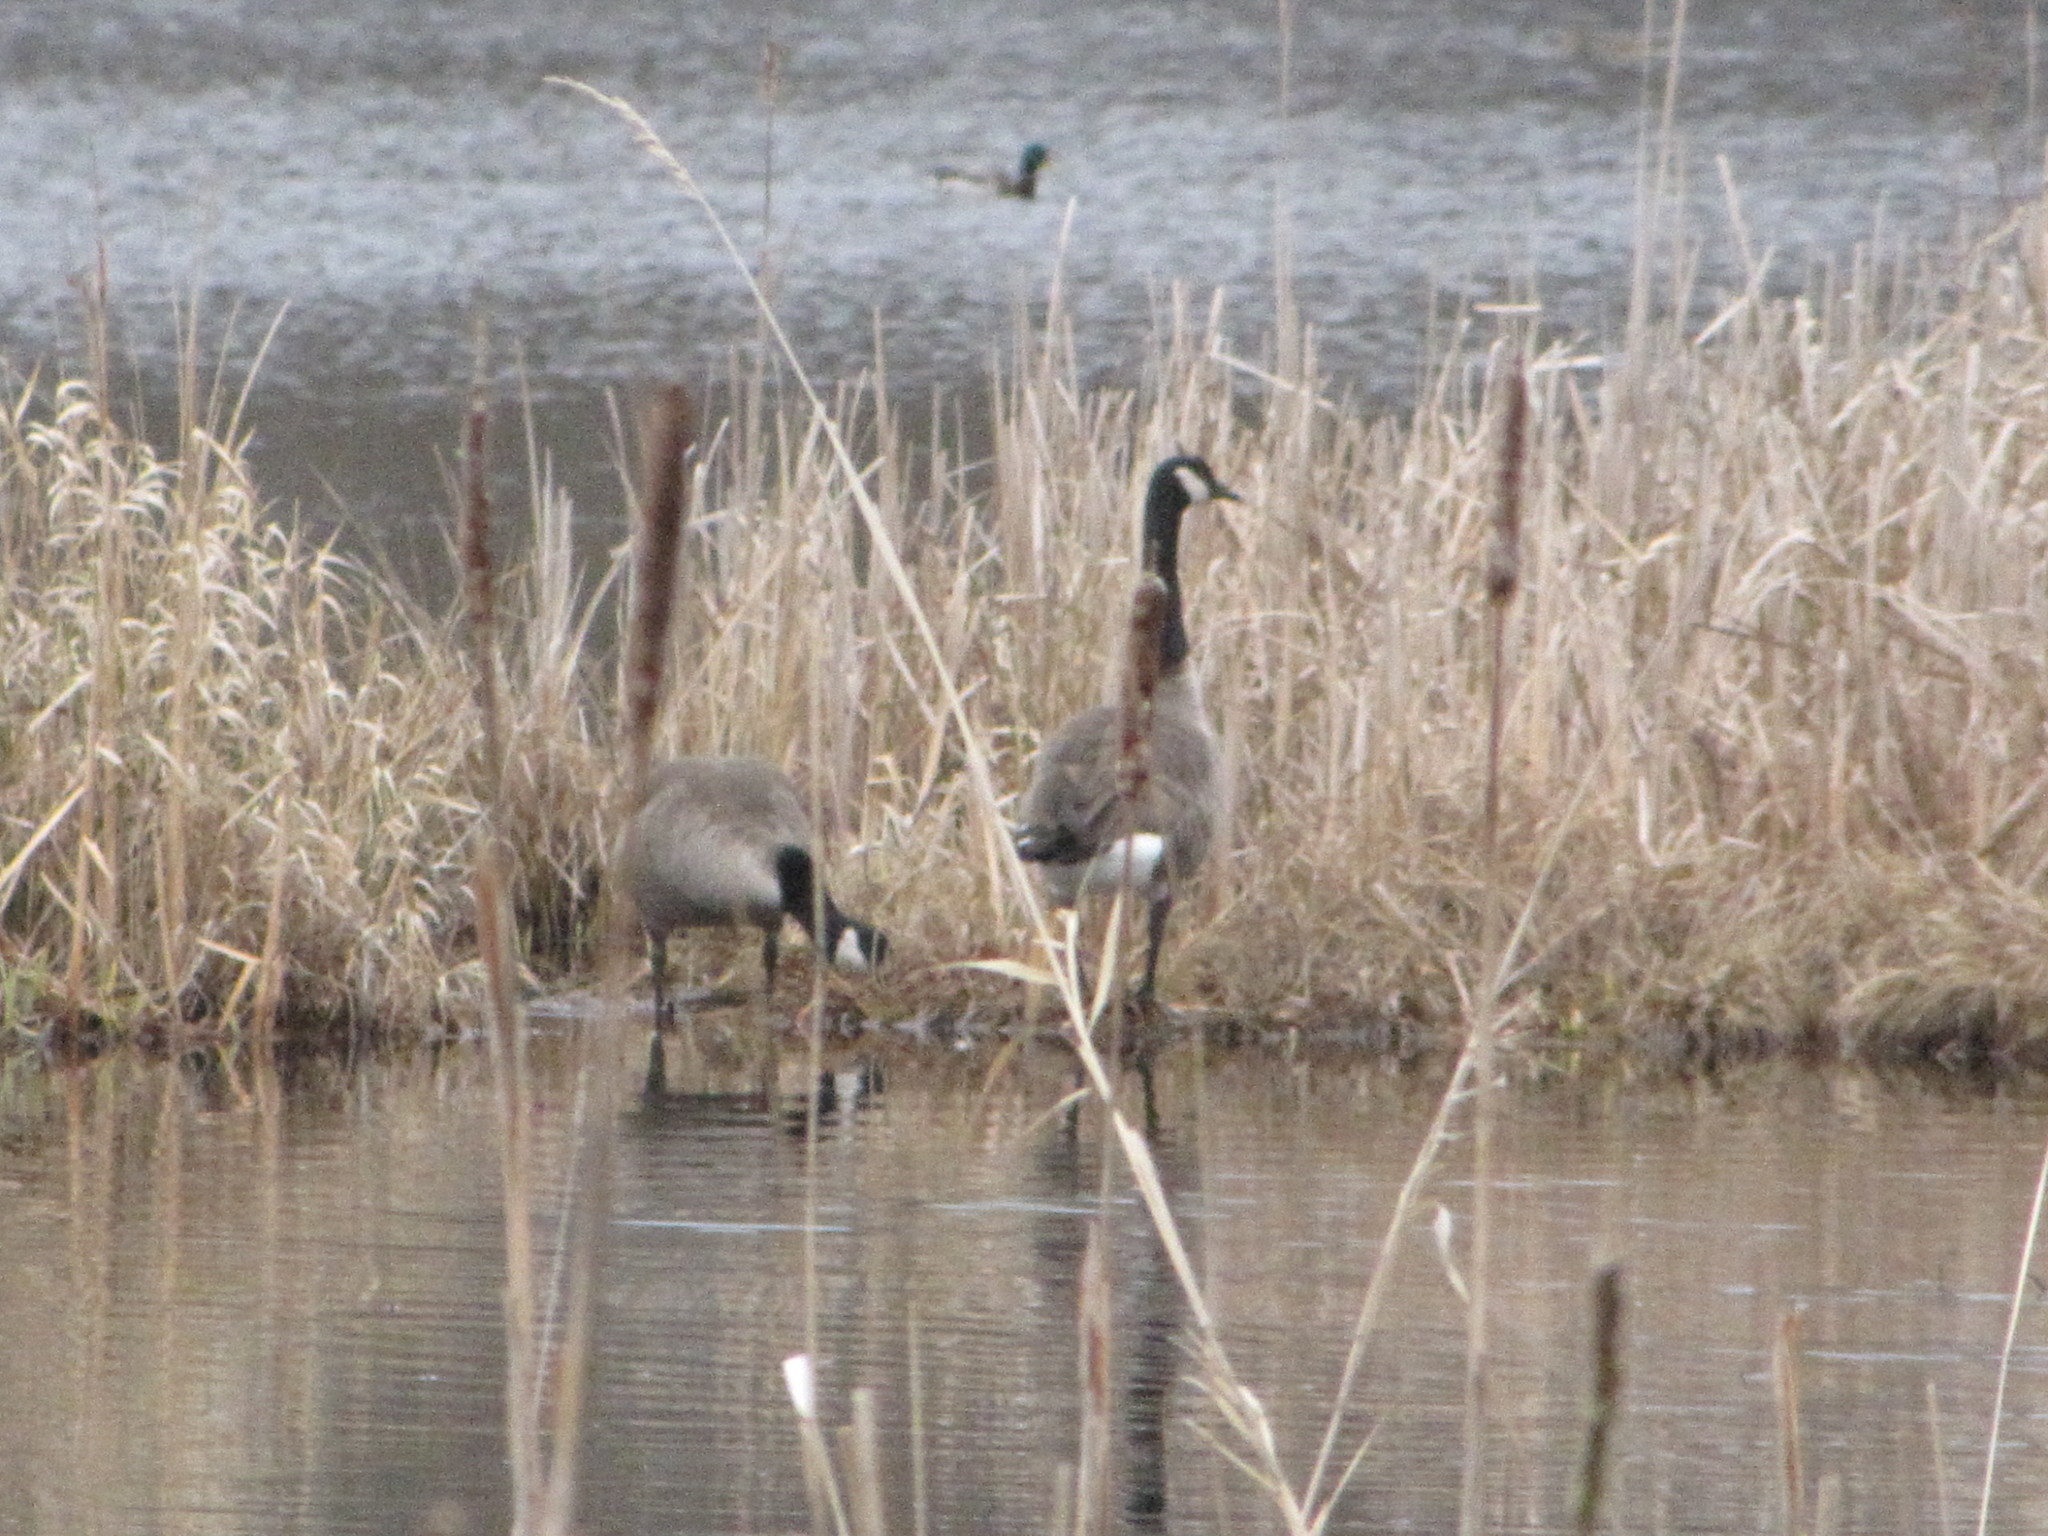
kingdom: Animalia
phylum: Chordata
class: Aves
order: Anseriformes
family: Anatidae
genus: Branta
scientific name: Branta canadensis
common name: Canada goose
